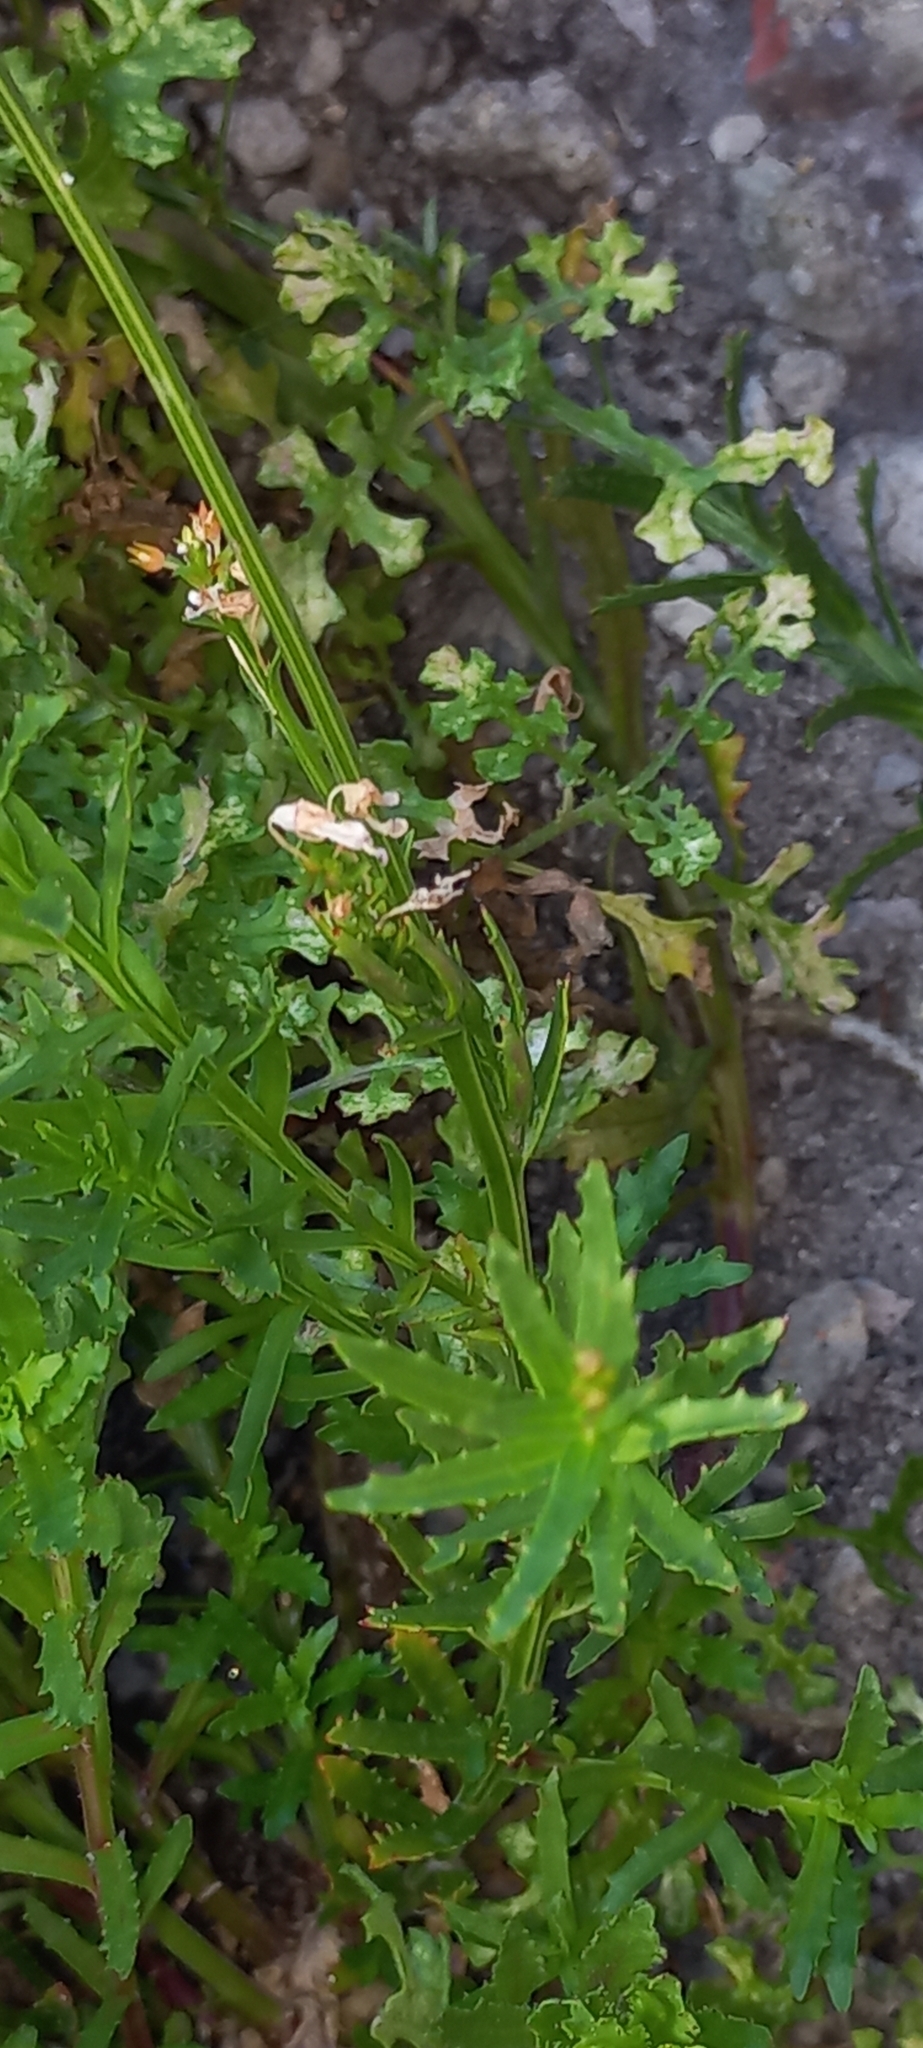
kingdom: Plantae
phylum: Tracheophyta
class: Magnoliopsida
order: Asterales
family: Campanulaceae
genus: Lobelia
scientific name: Lobelia comosa
